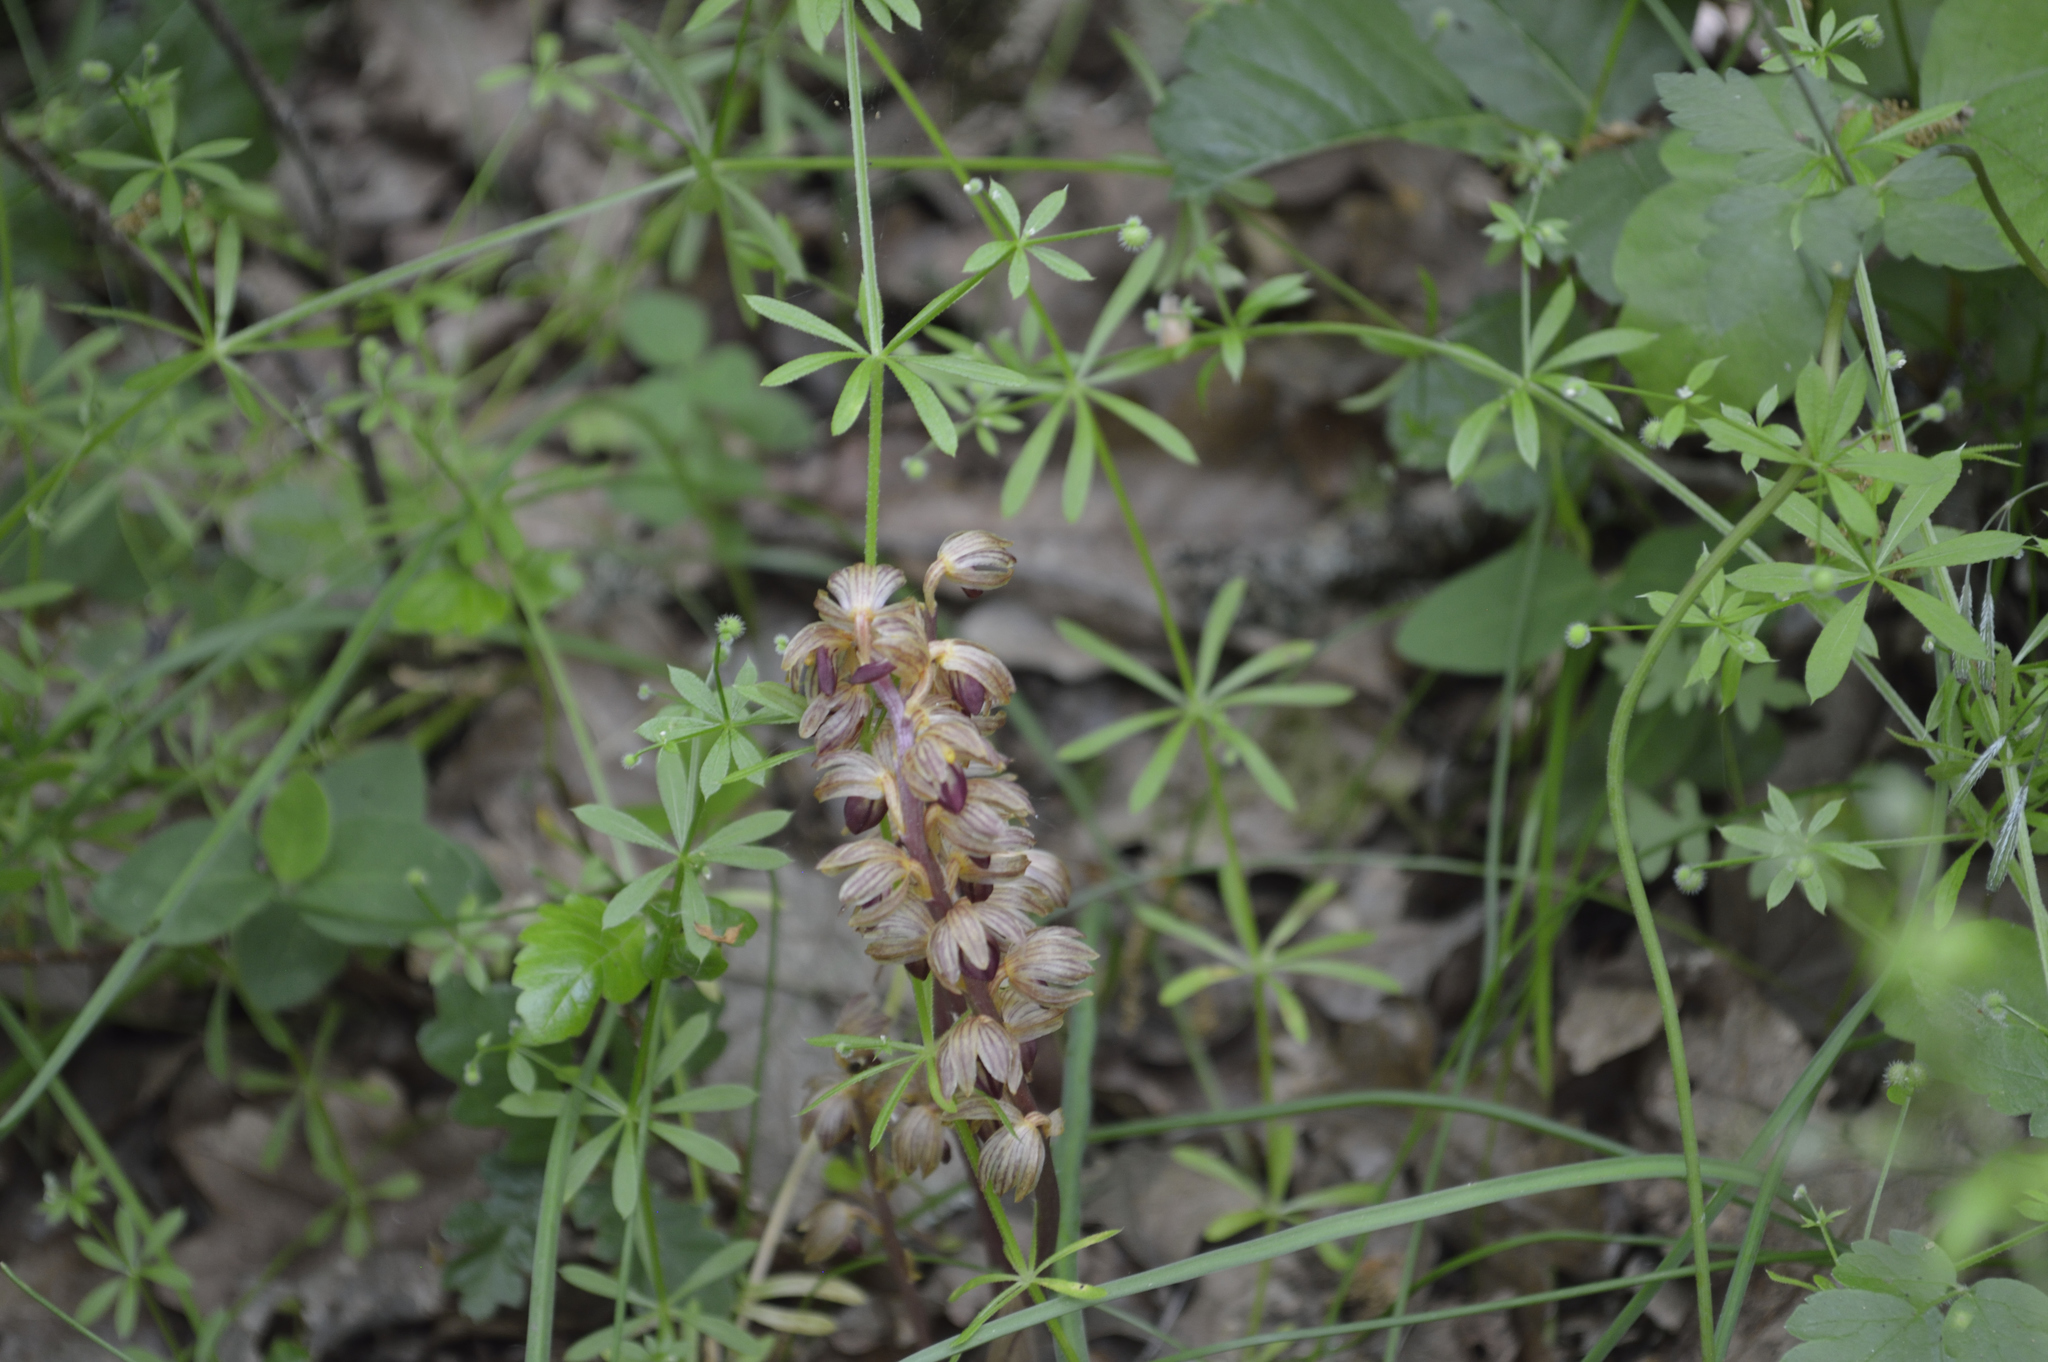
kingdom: Plantae
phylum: Tracheophyta
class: Liliopsida
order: Asparagales
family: Orchidaceae
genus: Corallorhiza
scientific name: Corallorhiza striata
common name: Hooded coralroot
